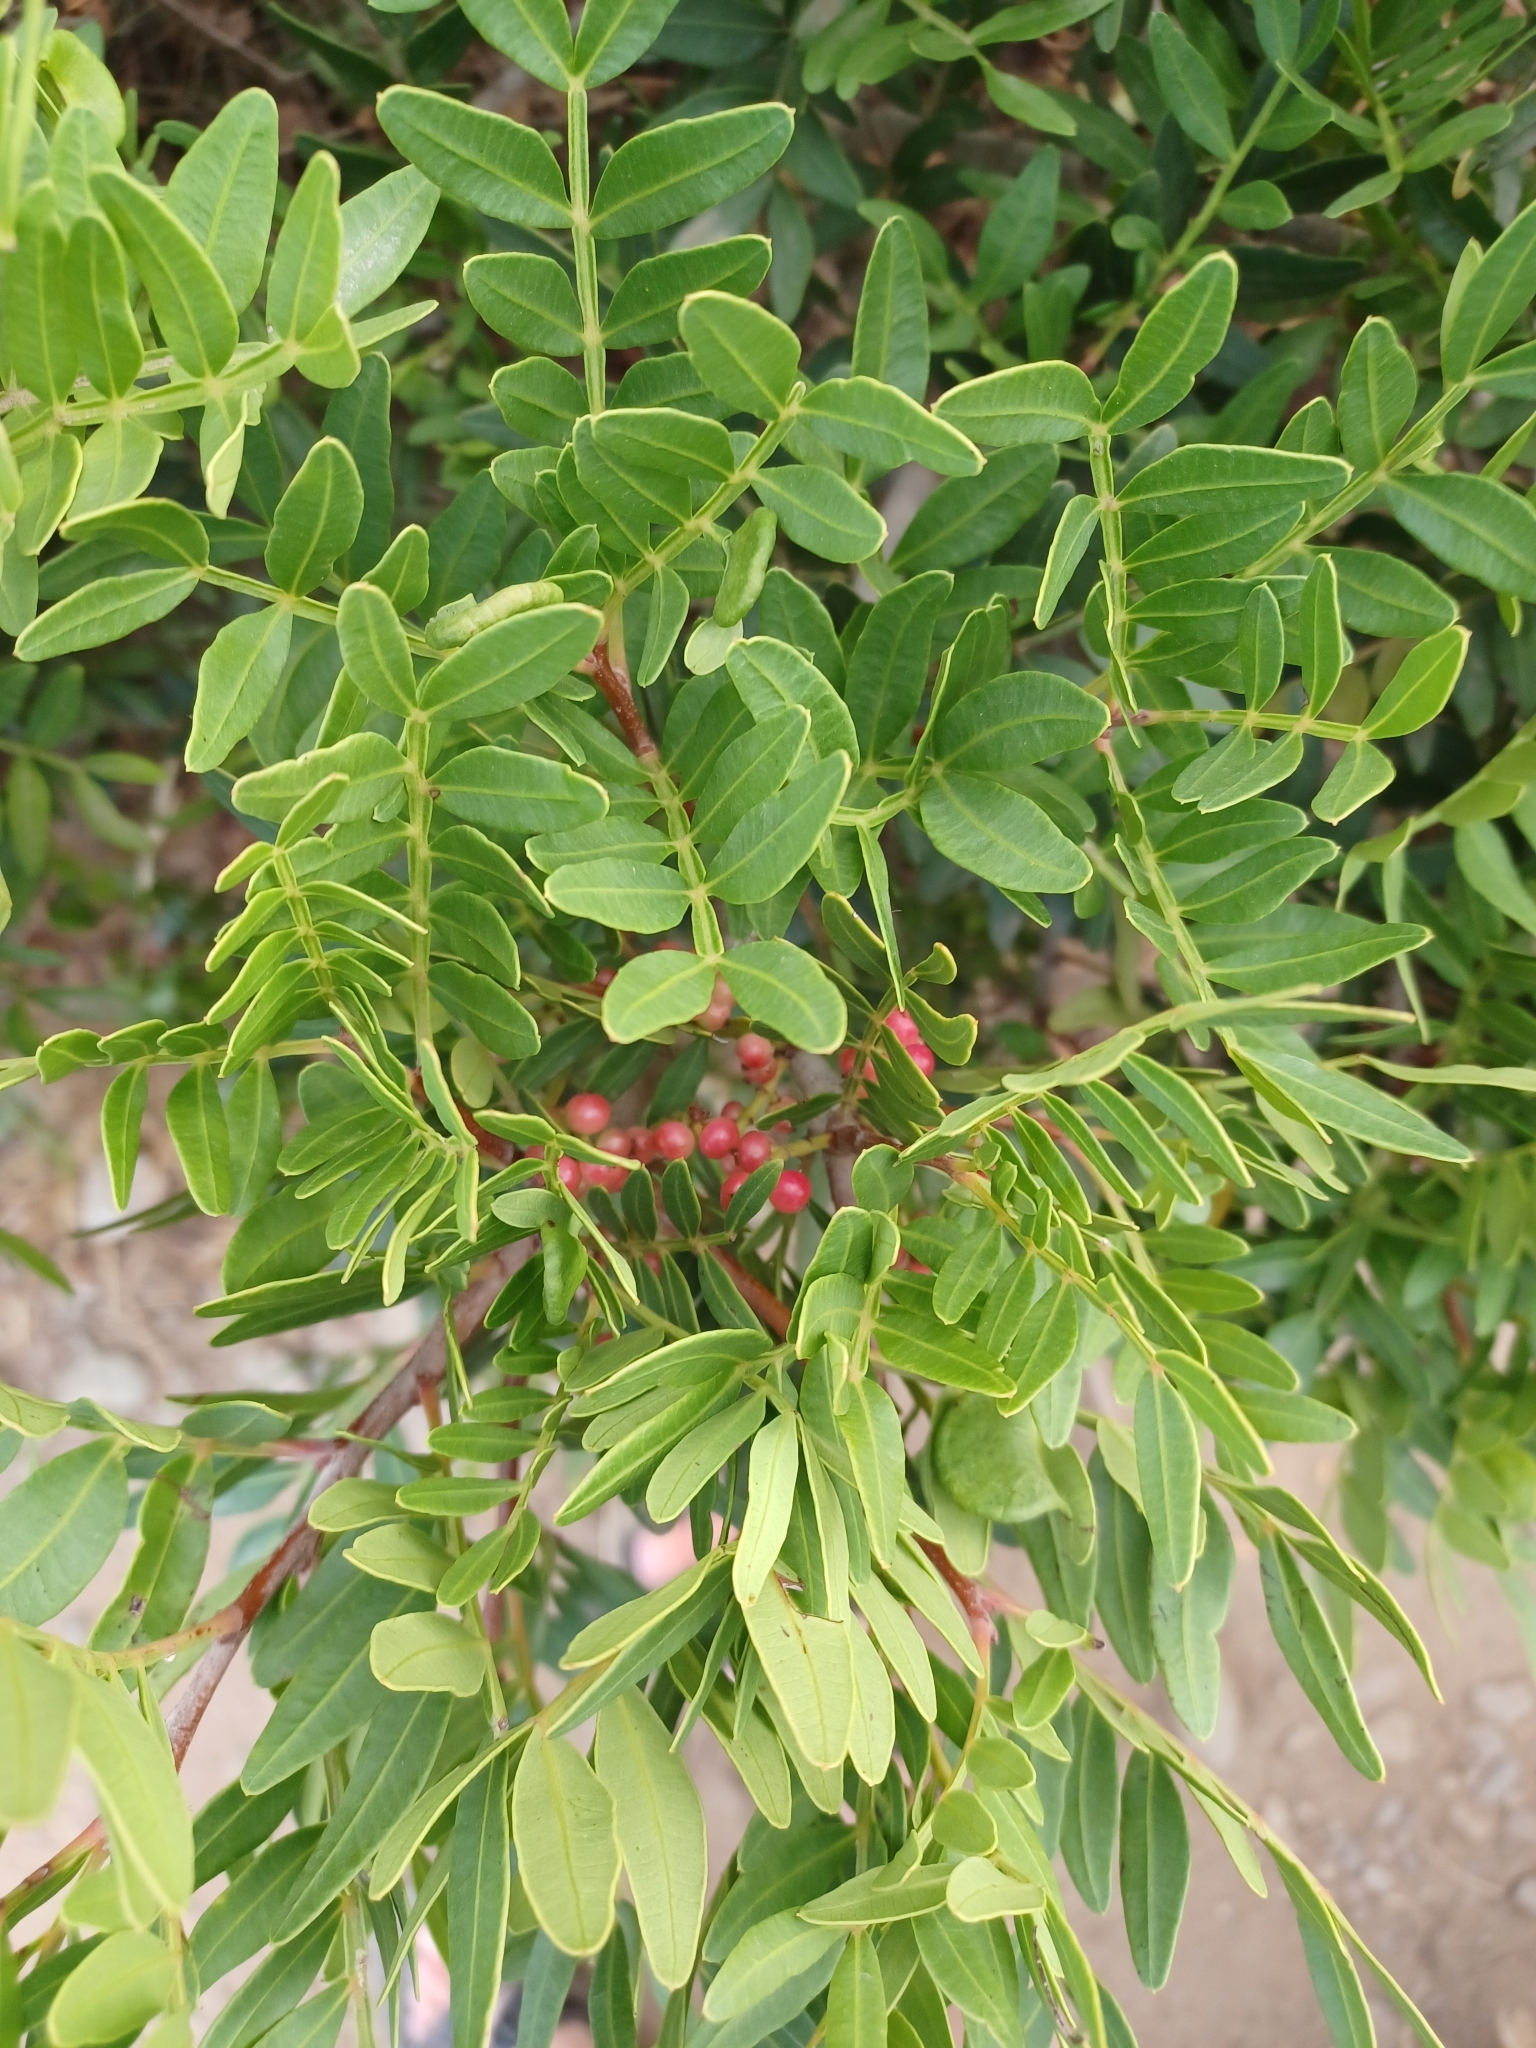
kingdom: Plantae
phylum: Tracheophyta
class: Magnoliopsida
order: Sapindales
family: Anacardiaceae
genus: Pistacia
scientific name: Pistacia lentiscus
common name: Lentisk
